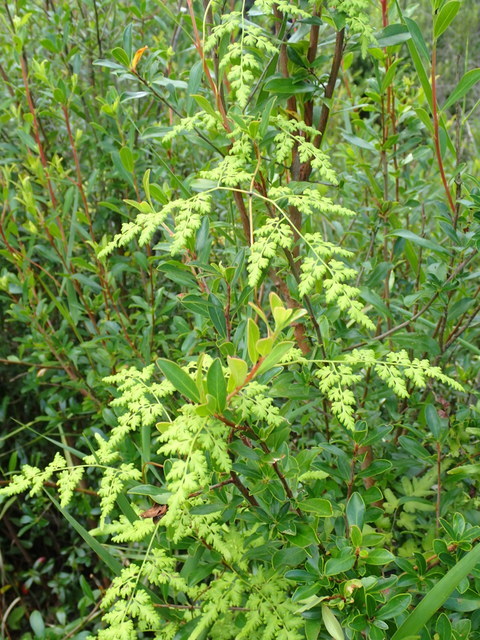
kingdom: Plantae
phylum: Tracheophyta
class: Polypodiopsida
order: Schizaeales
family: Lygodiaceae
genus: Lygodium
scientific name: Lygodium japonicum
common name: Japanese climbing fern
